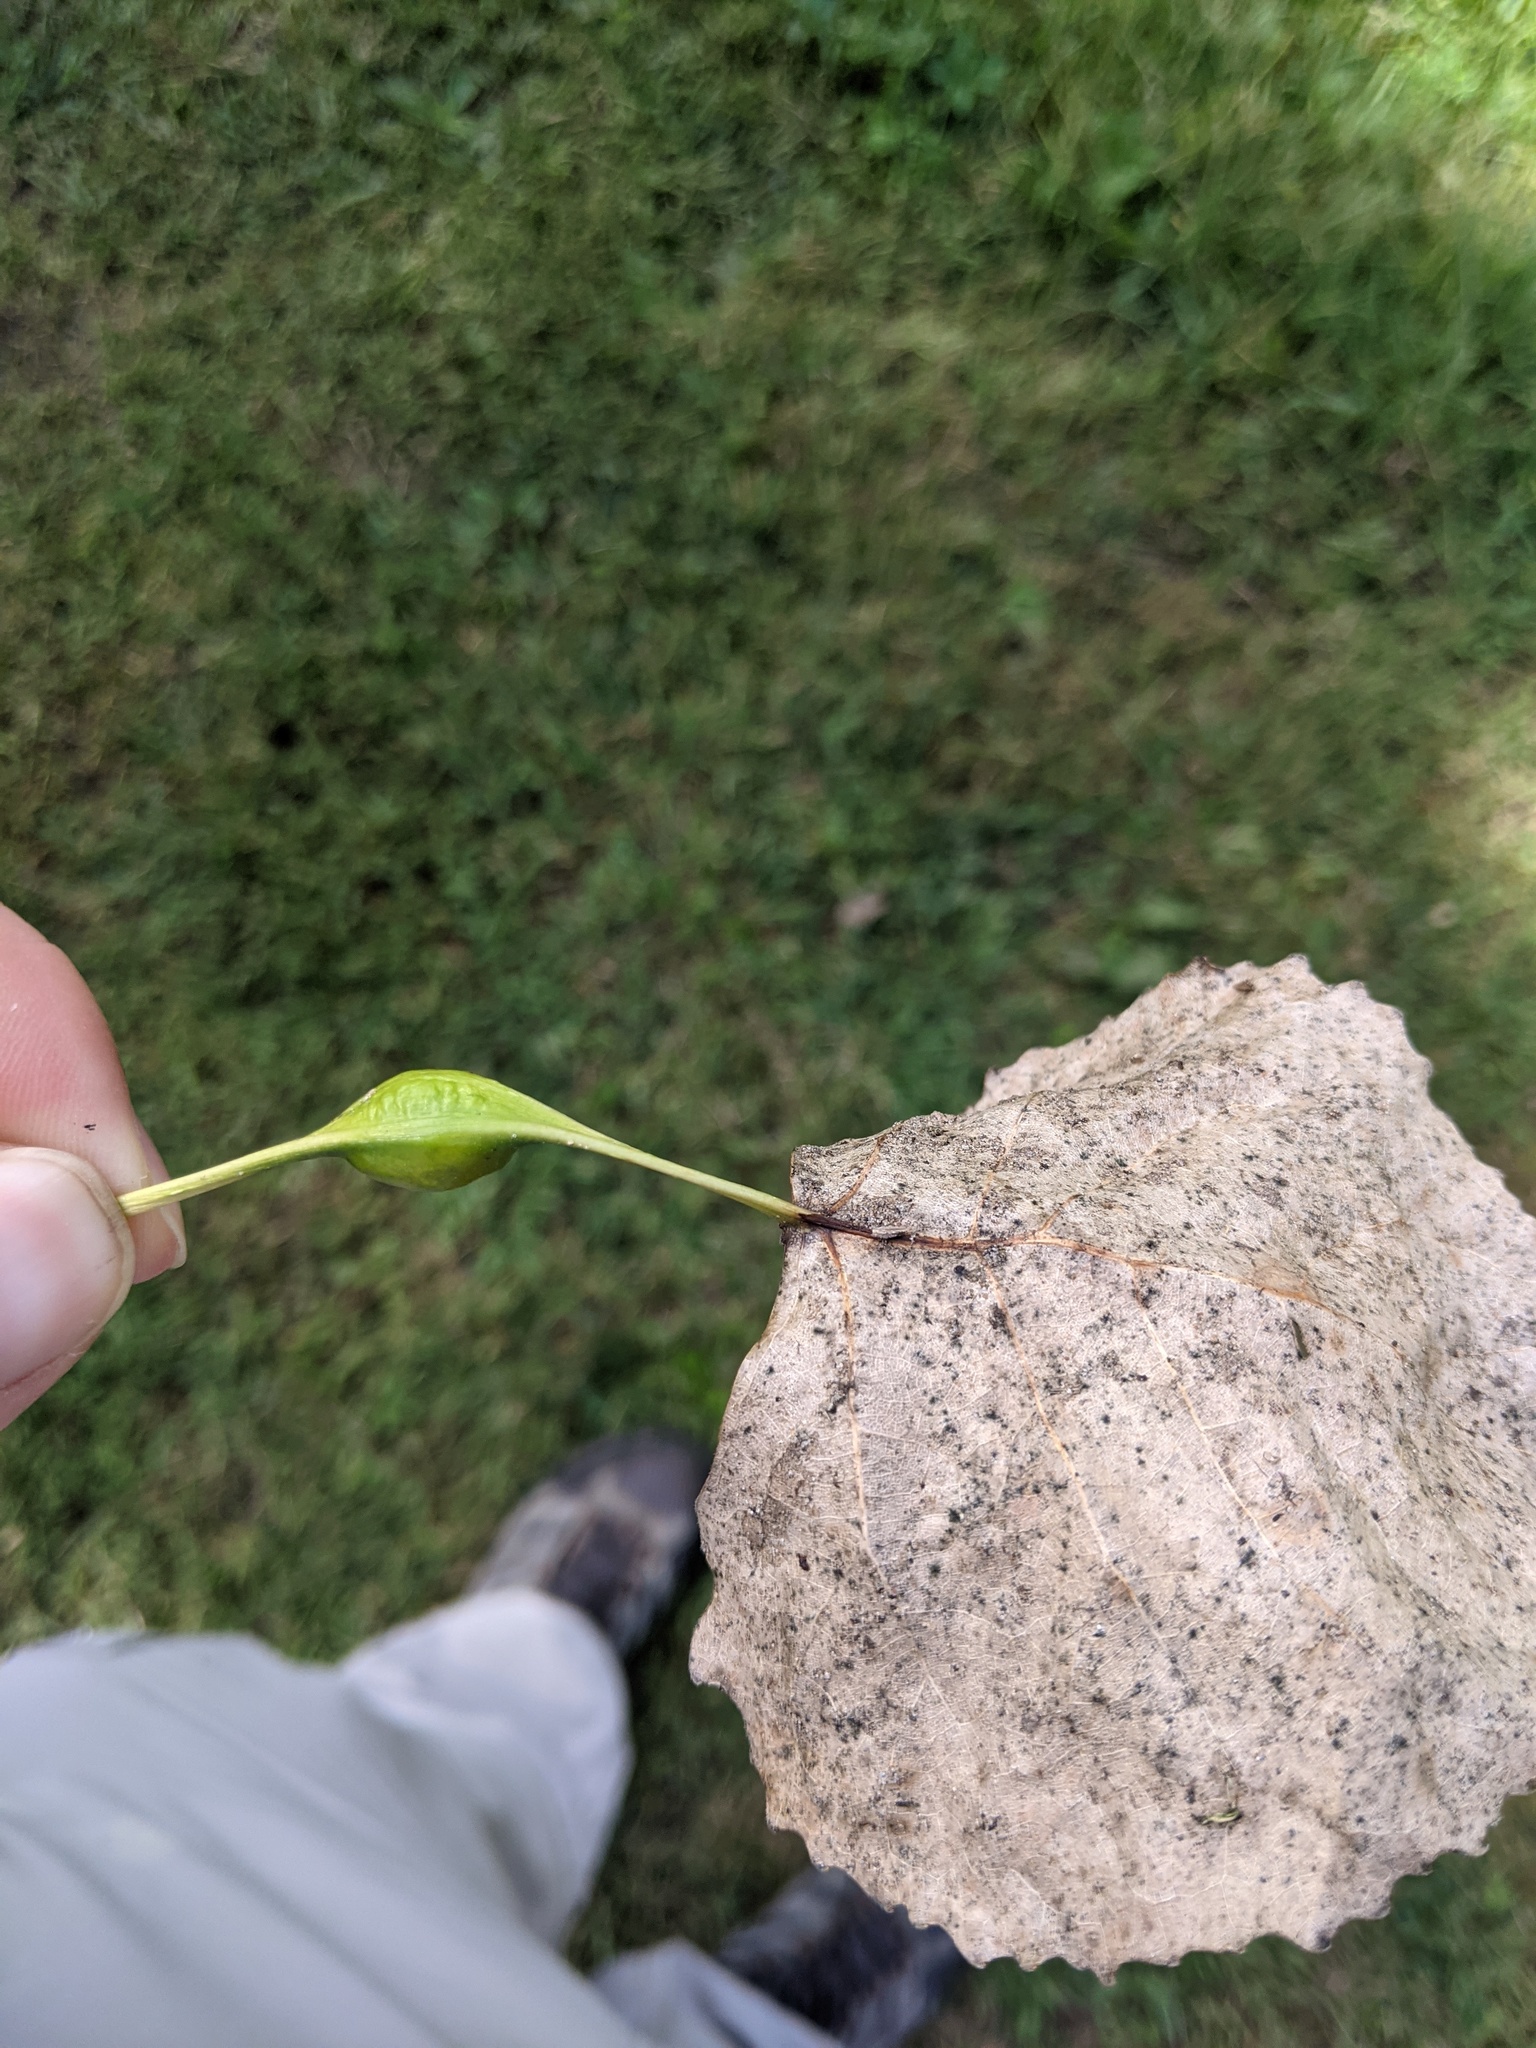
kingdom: Animalia
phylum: Arthropoda
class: Insecta
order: Hemiptera
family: Aphididae
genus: Pemphigus
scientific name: Pemphigus populitransversus
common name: Poplar petiolegall aphid
